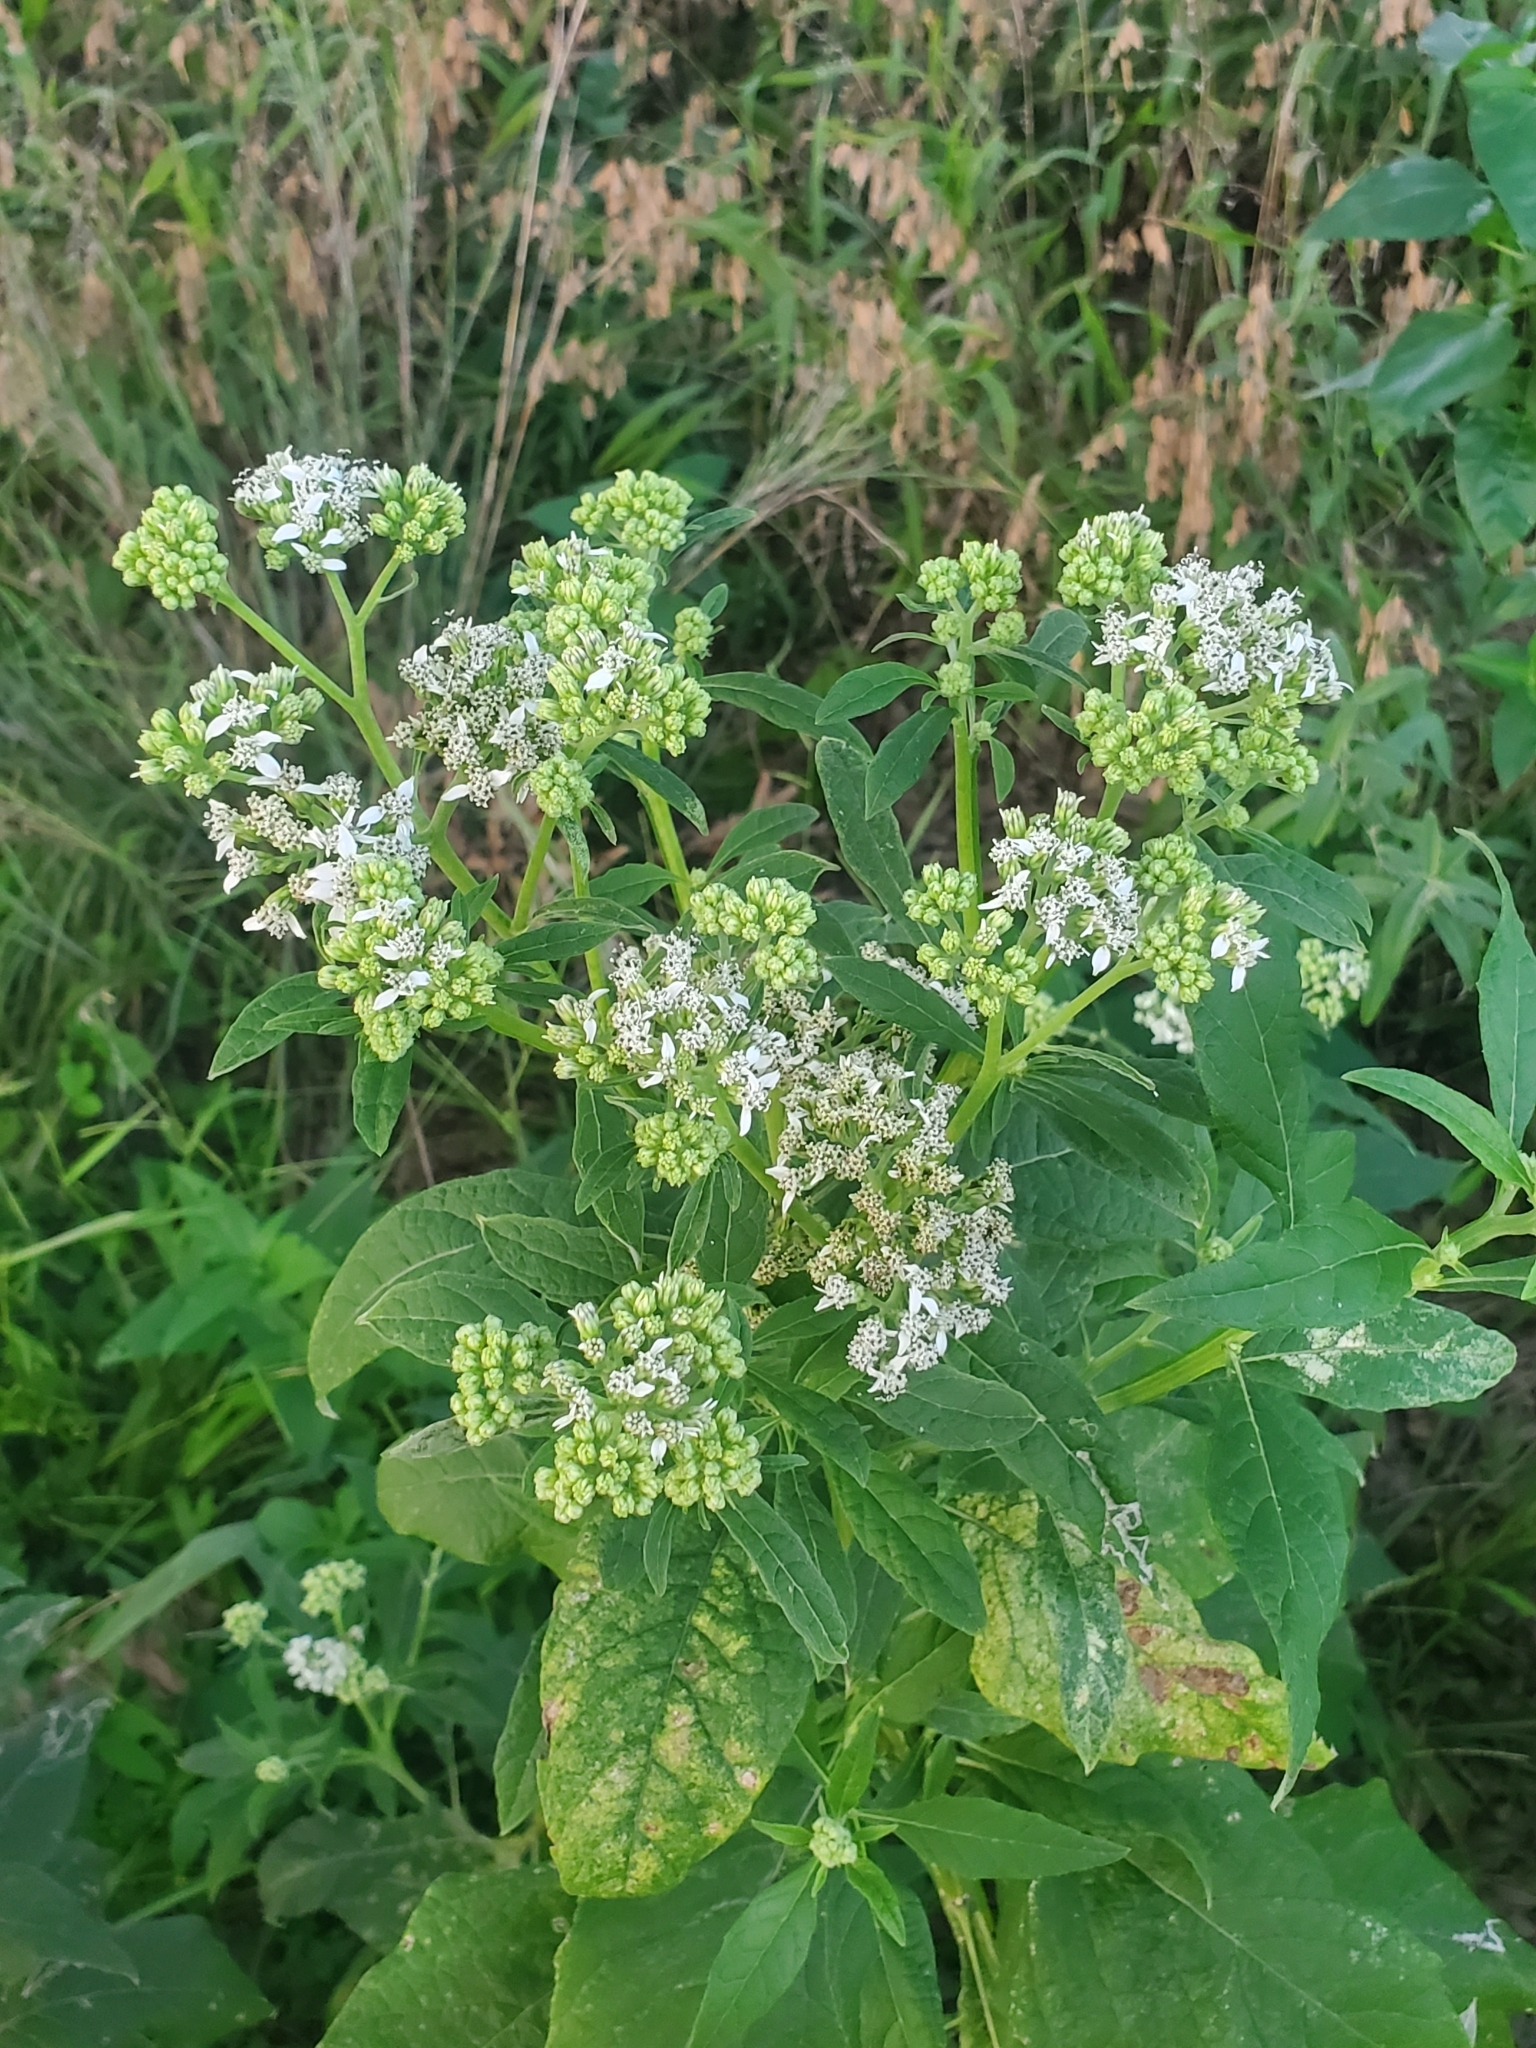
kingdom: Plantae
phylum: Tracheophyta
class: Magnoliopsida
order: Asterales
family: Asteraceae
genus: Verbesina
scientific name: Verbesina virginica
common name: Frostweed
